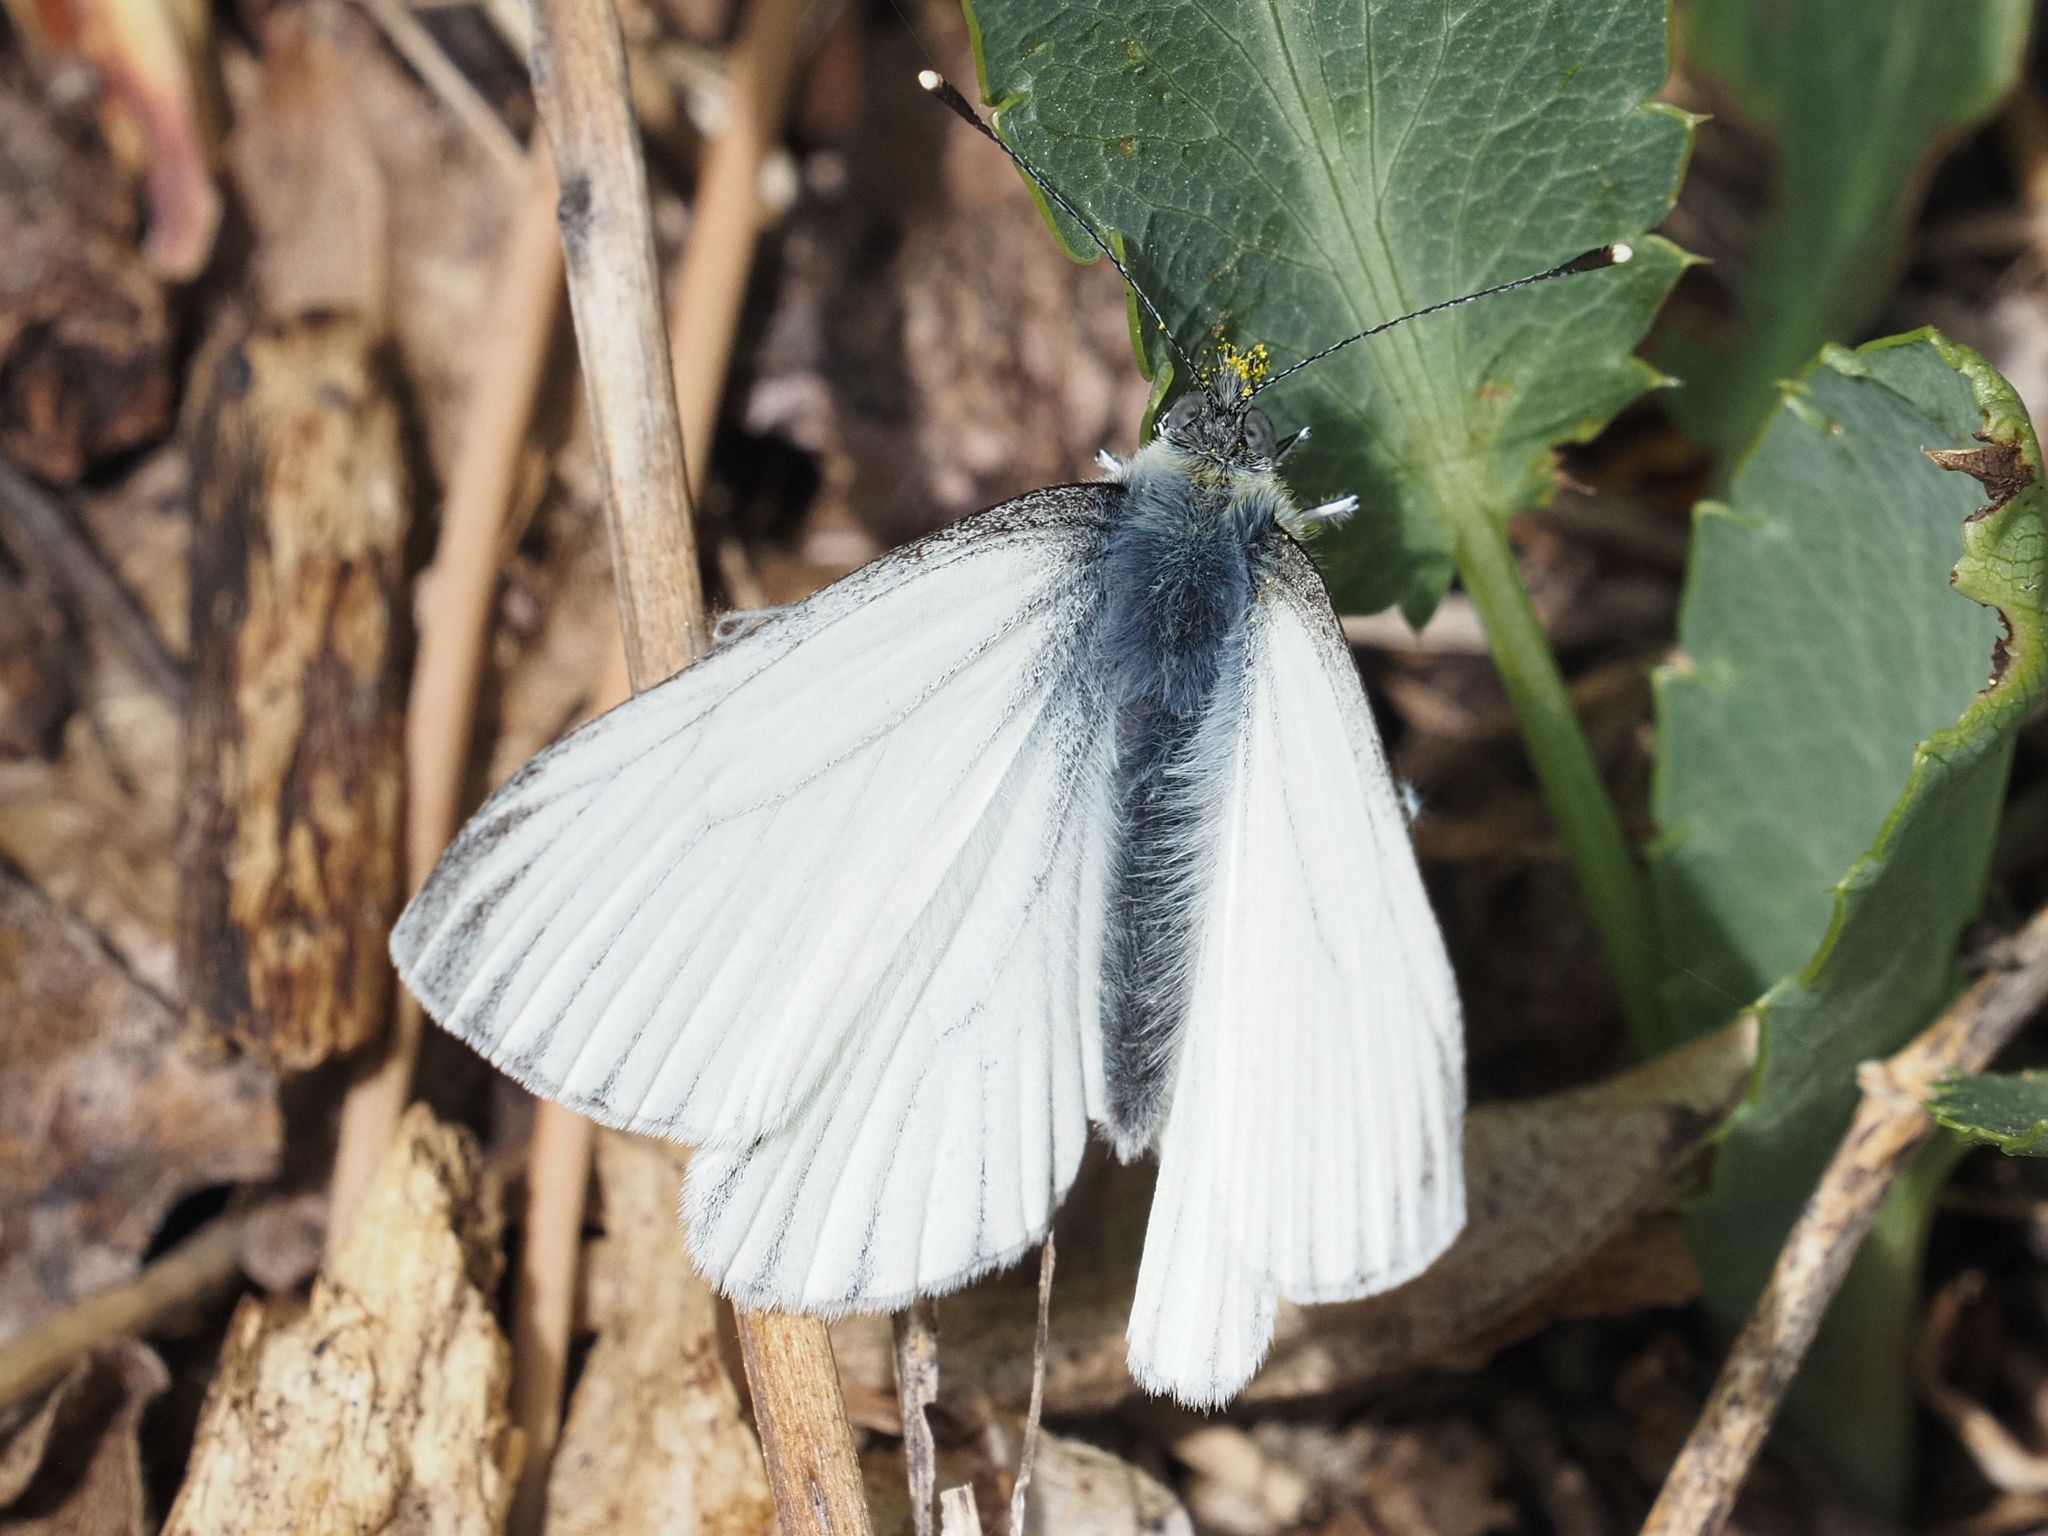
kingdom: Animalia
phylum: Arthropoda
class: Insecta
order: Lepidoptera
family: Pieridae
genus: Pieris
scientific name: Pieris napi
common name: Green-veined white
